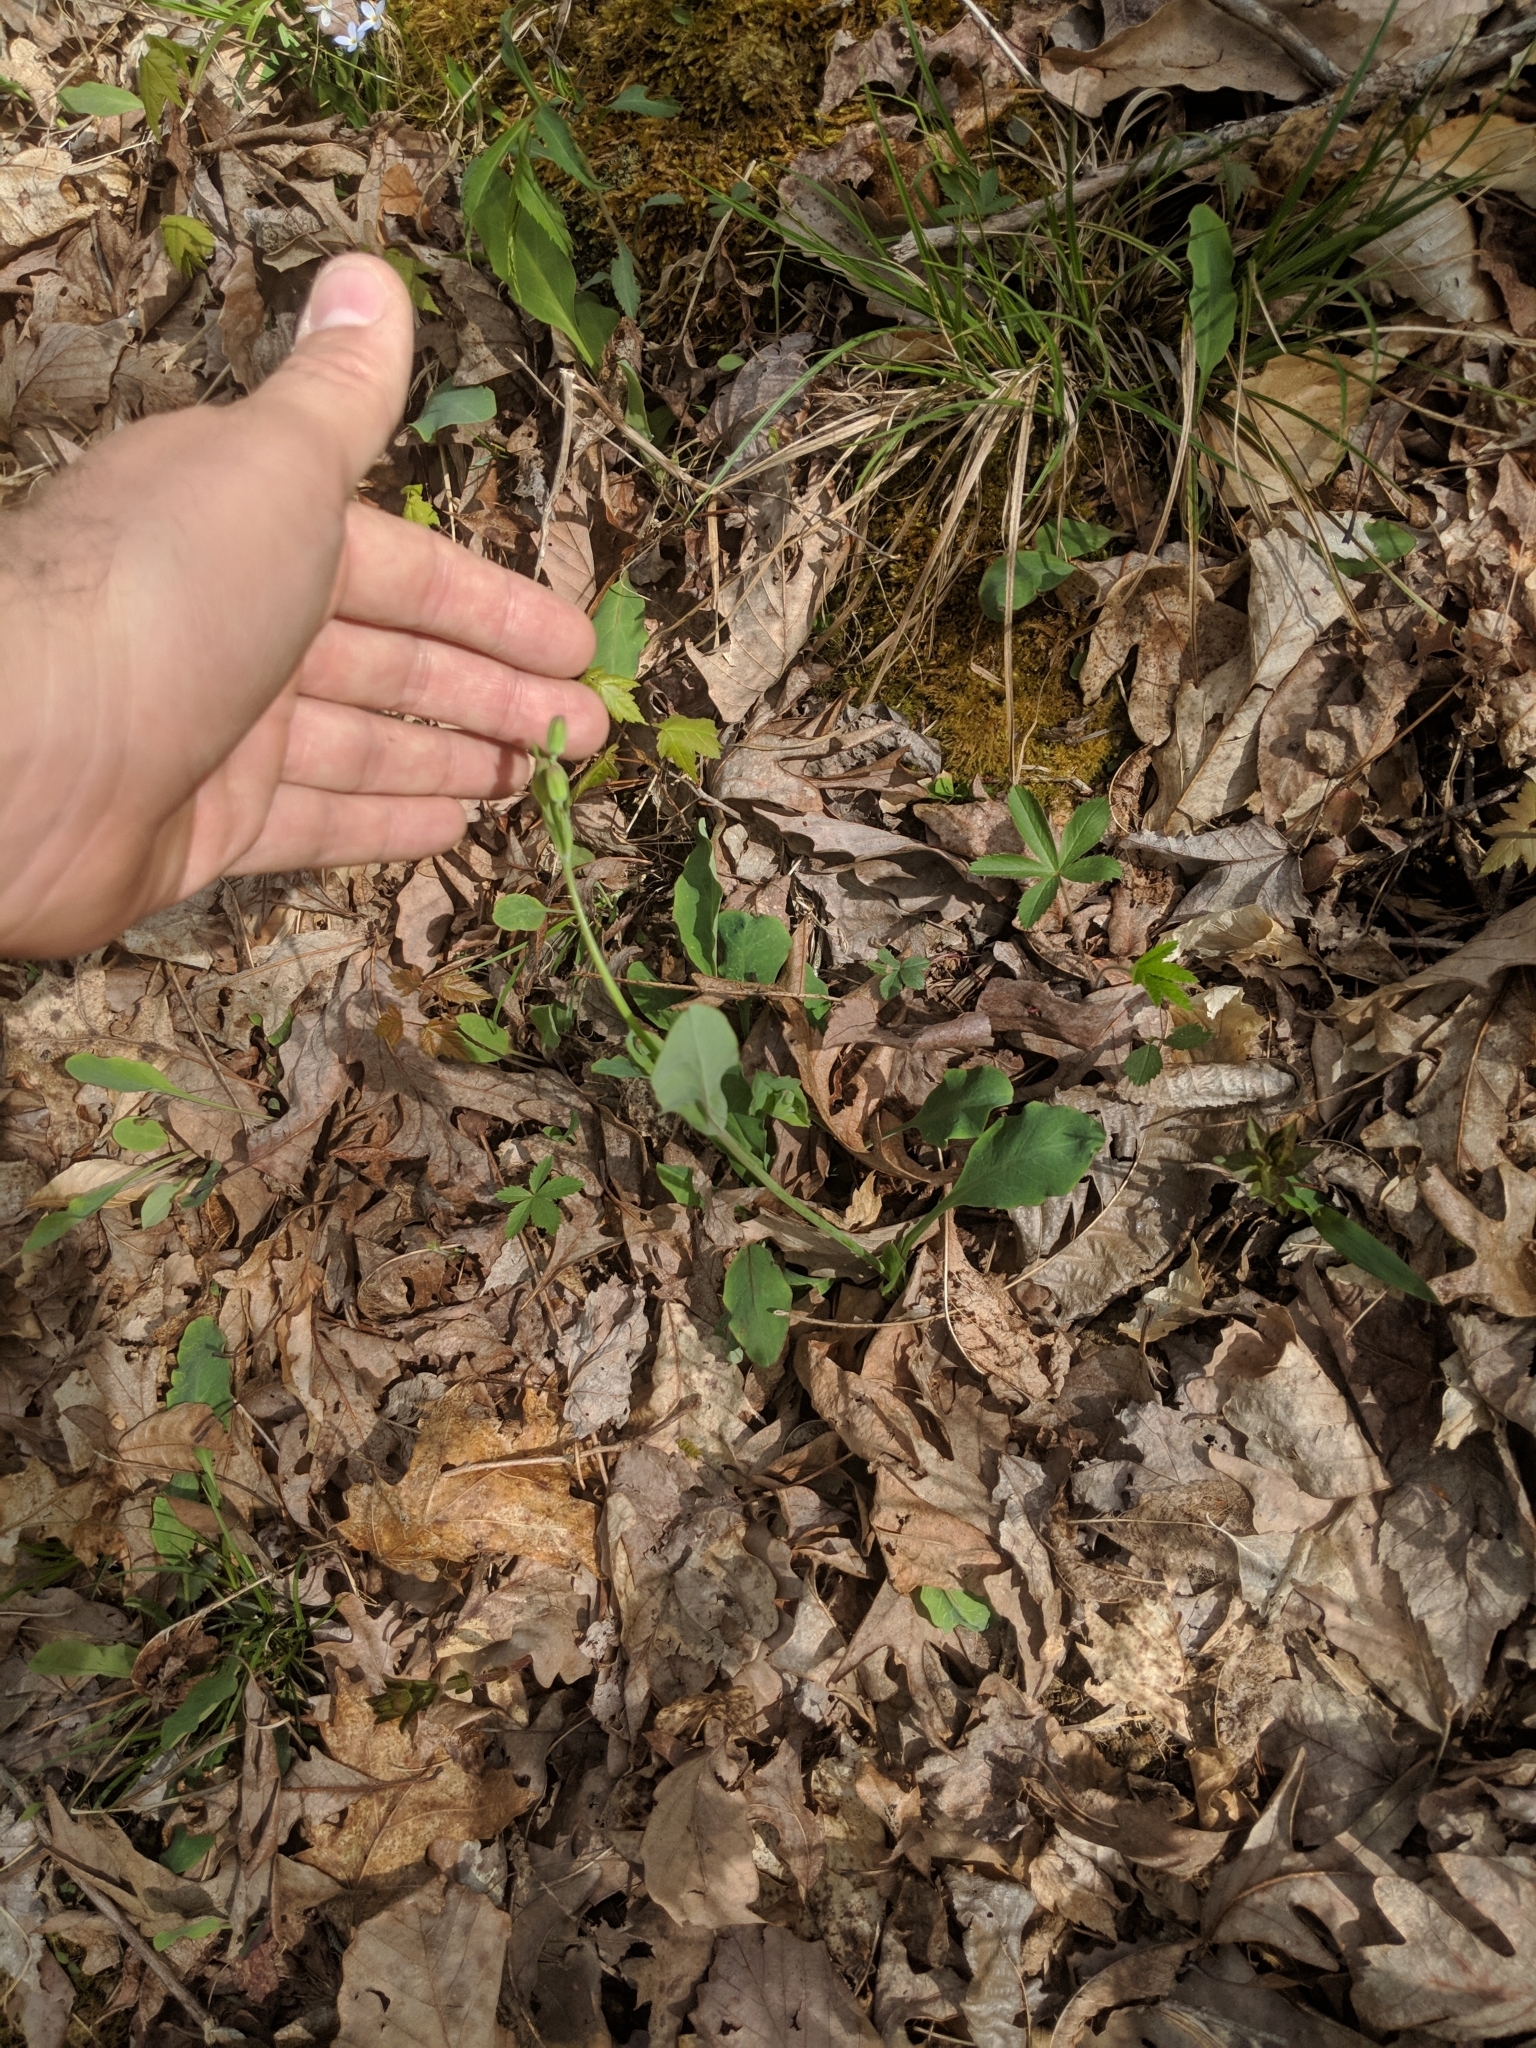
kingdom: Plantae
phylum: Tracheophyta
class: Magnoliopsida
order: Asterales
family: Asteraceae
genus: Krigia
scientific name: Krigia biflora
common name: Orange dwarf-dandelion
